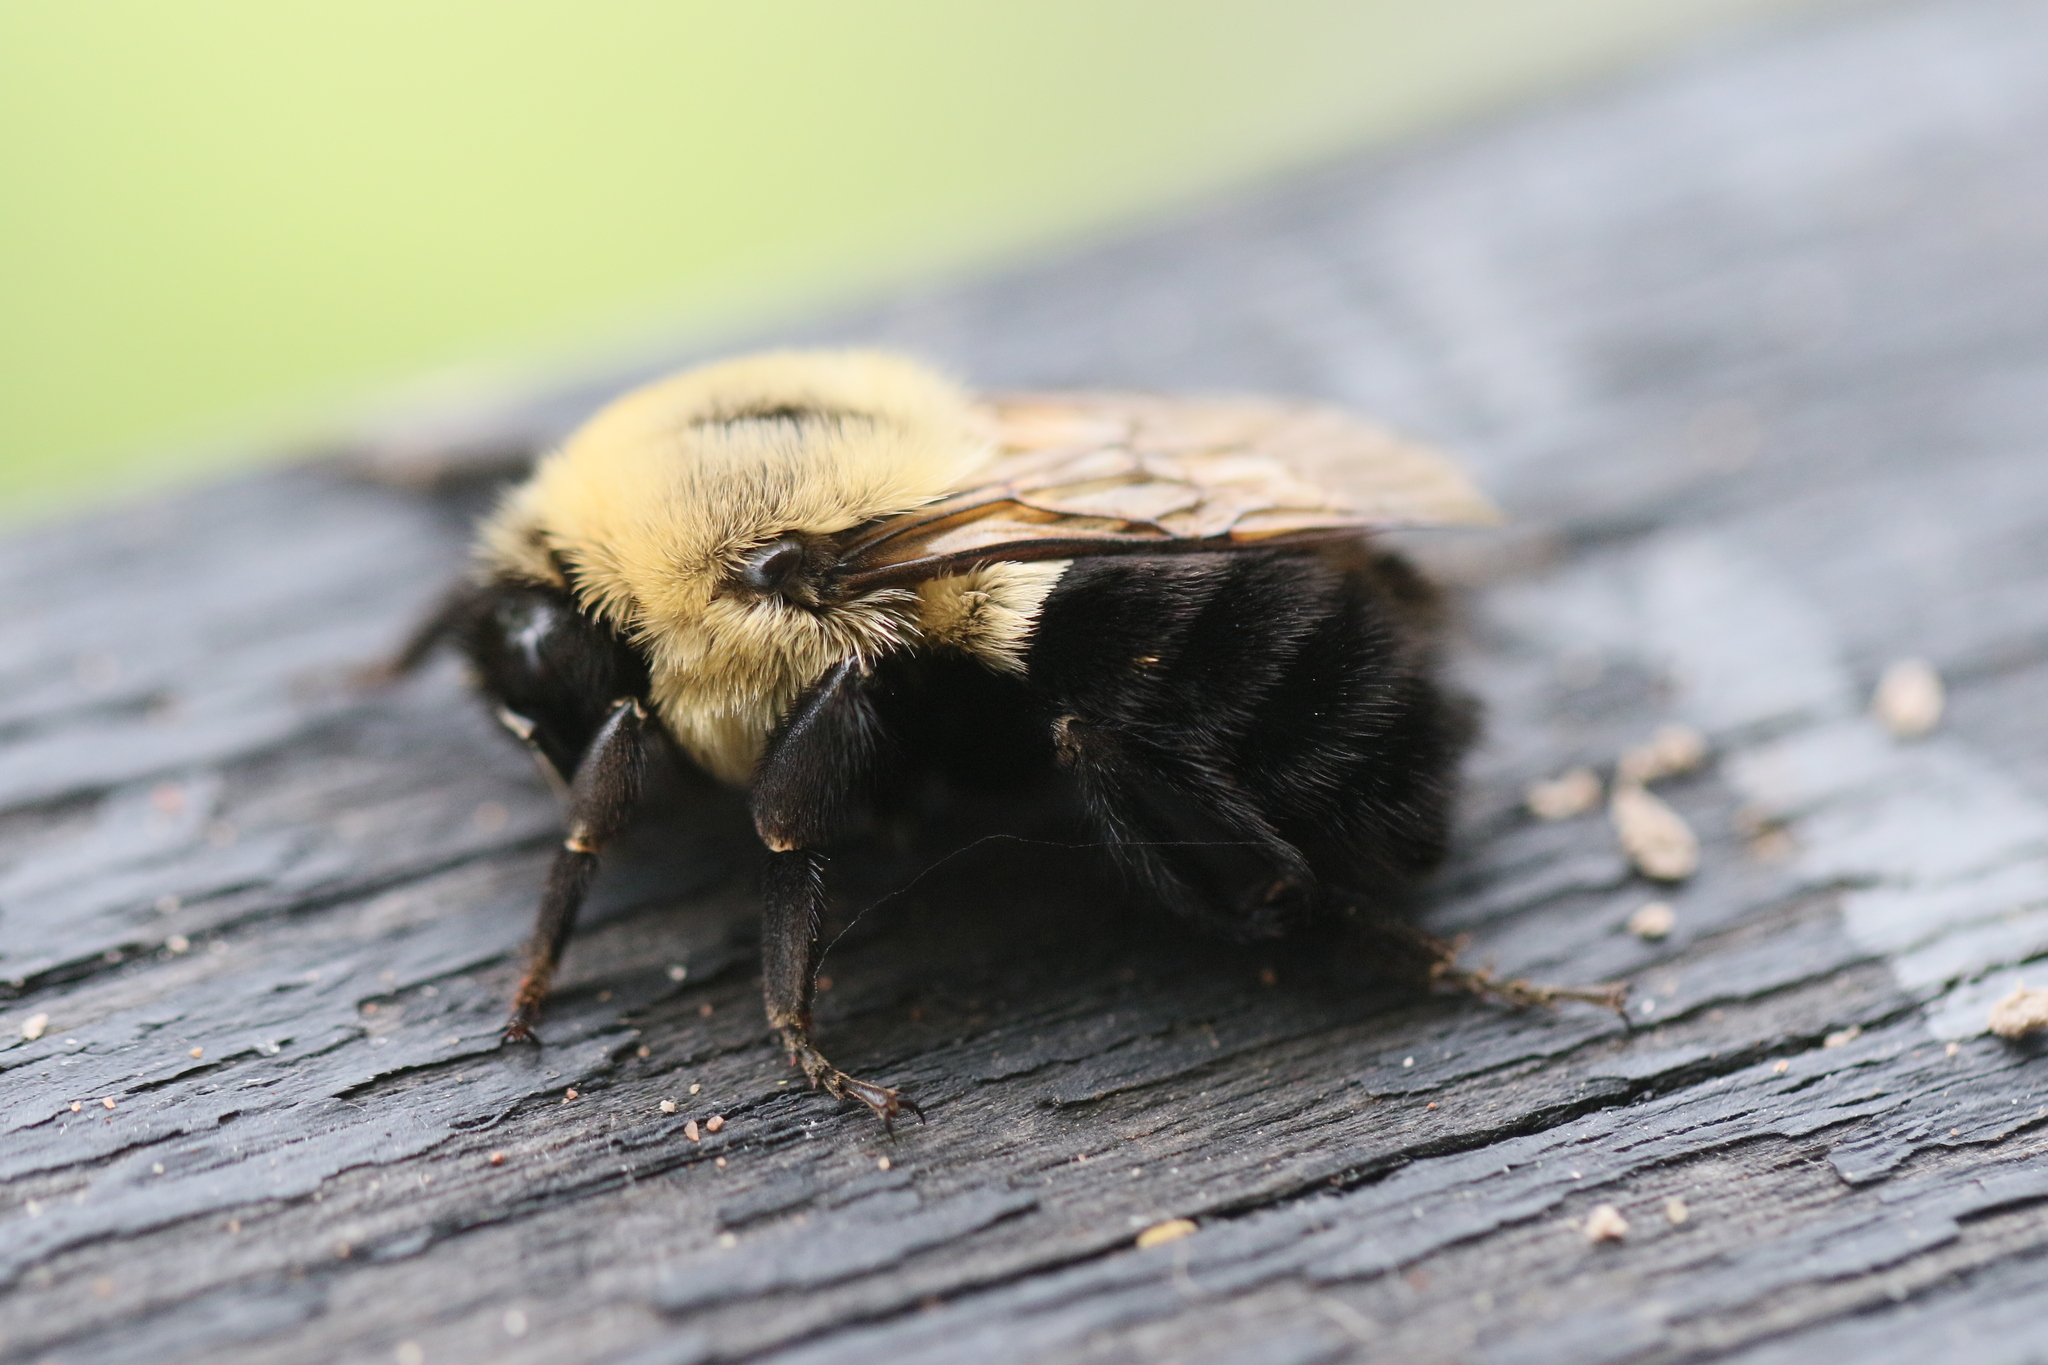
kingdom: Animalia
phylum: Arthropoda
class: Insecta
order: Hymenoptera
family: Apidae
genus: Bombus
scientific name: Bombus impatiens
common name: Common eastern bumble bee
